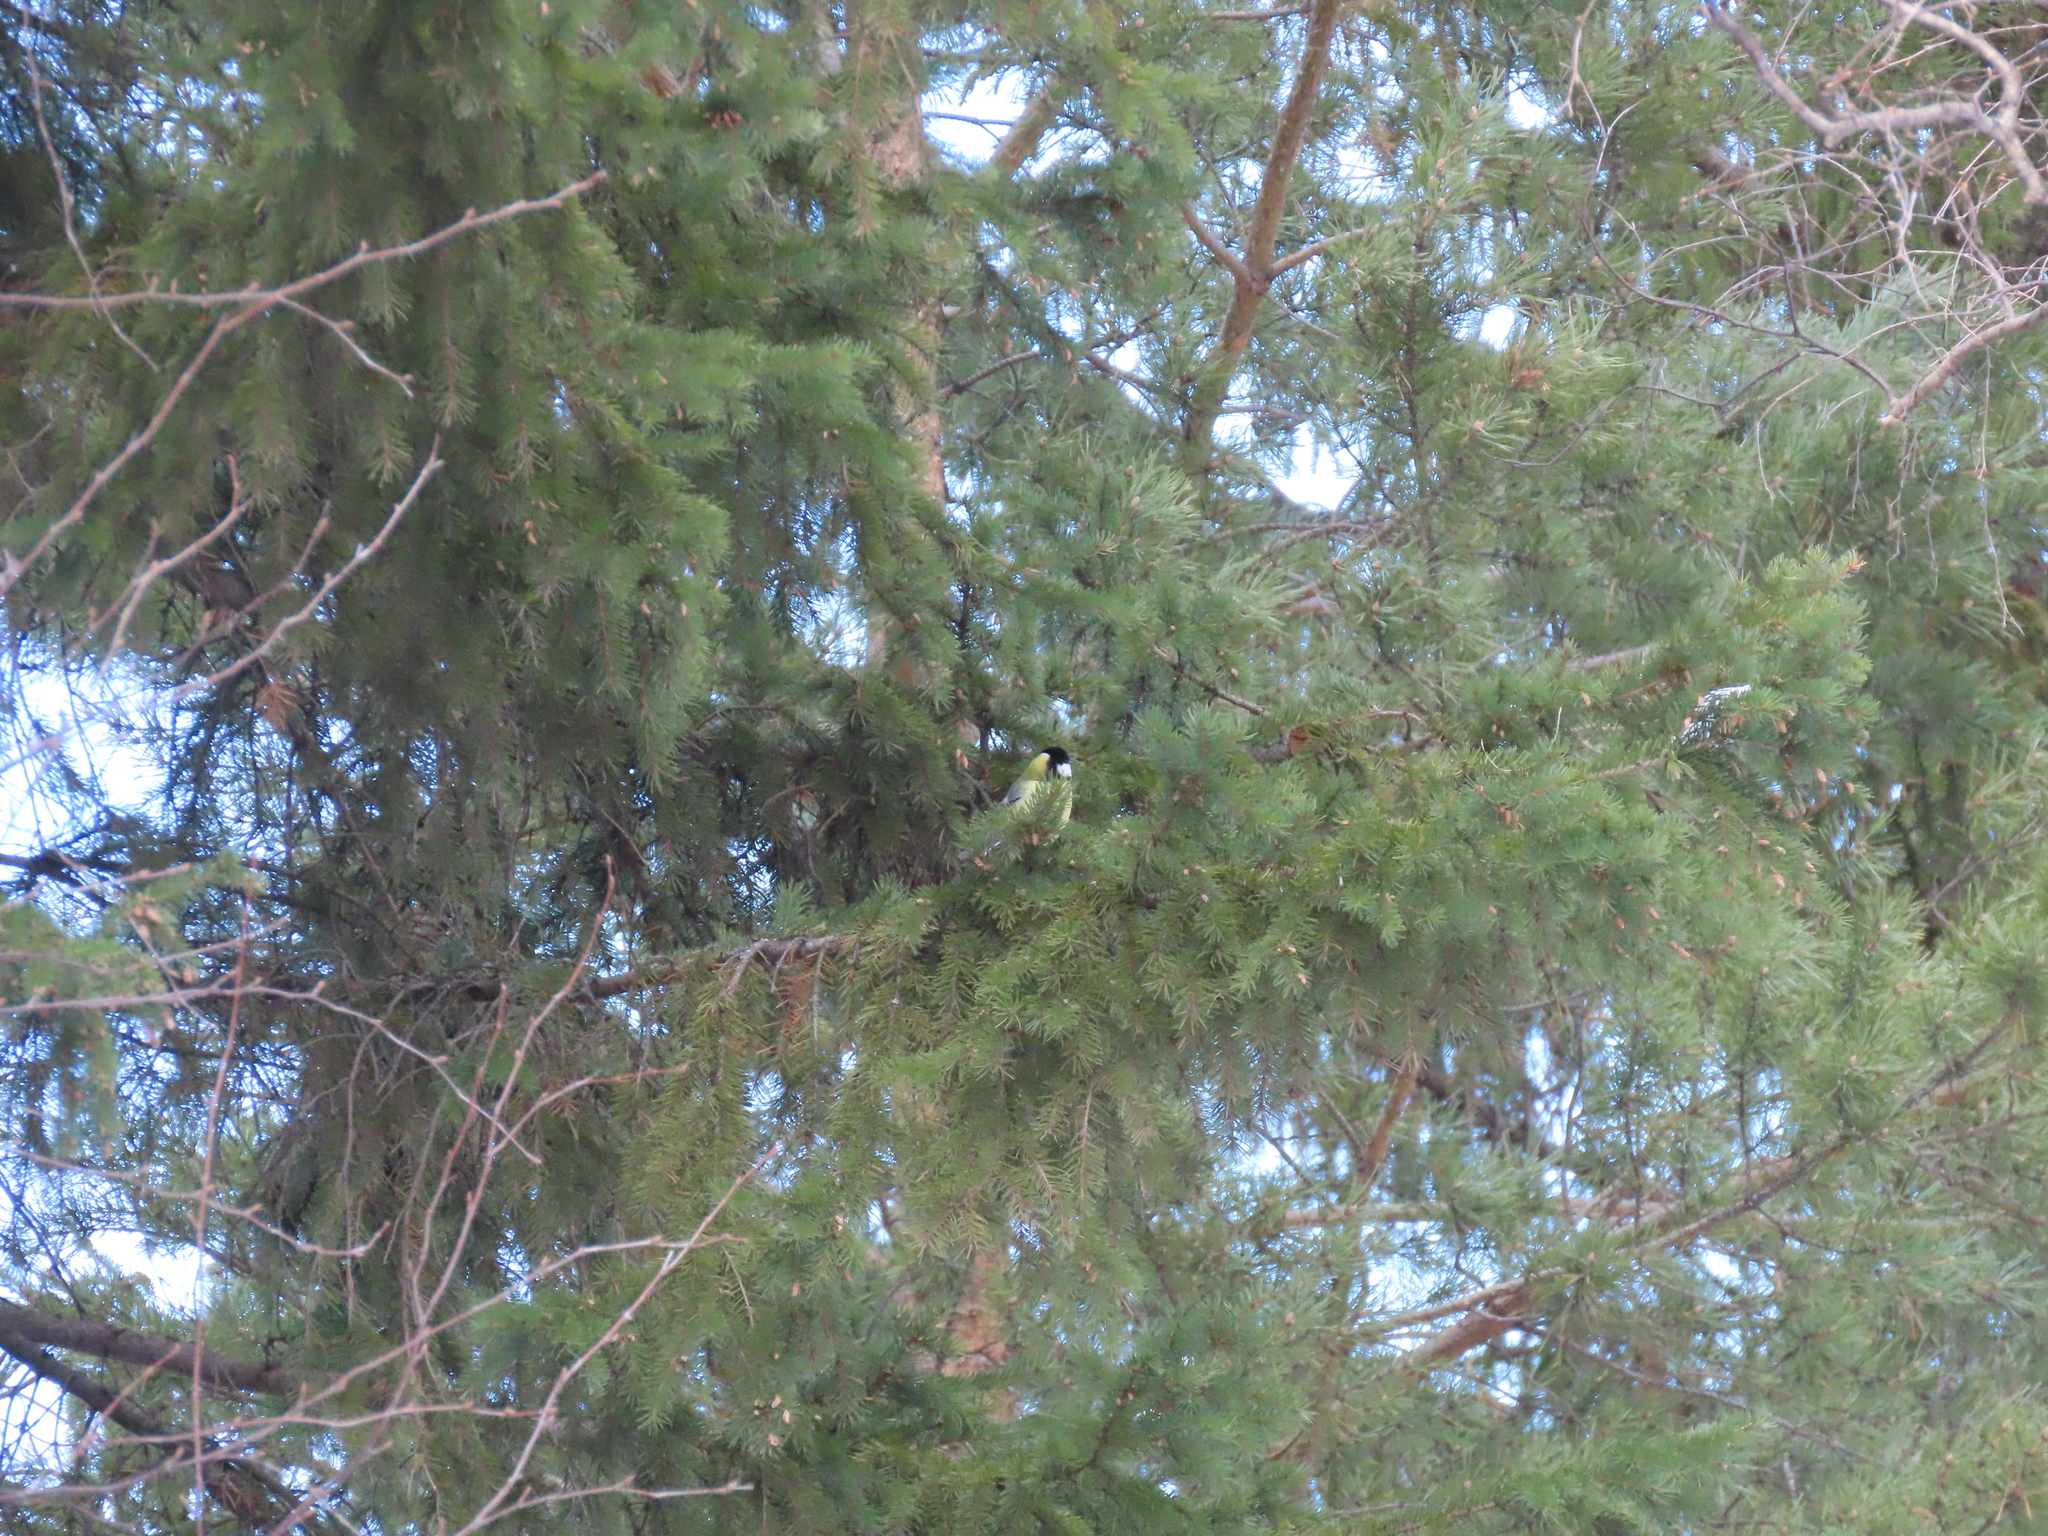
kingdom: Animalia
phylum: Chordata
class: Aves
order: Passeriformes
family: Paridae
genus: Parus
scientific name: Parus major
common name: Great tit
